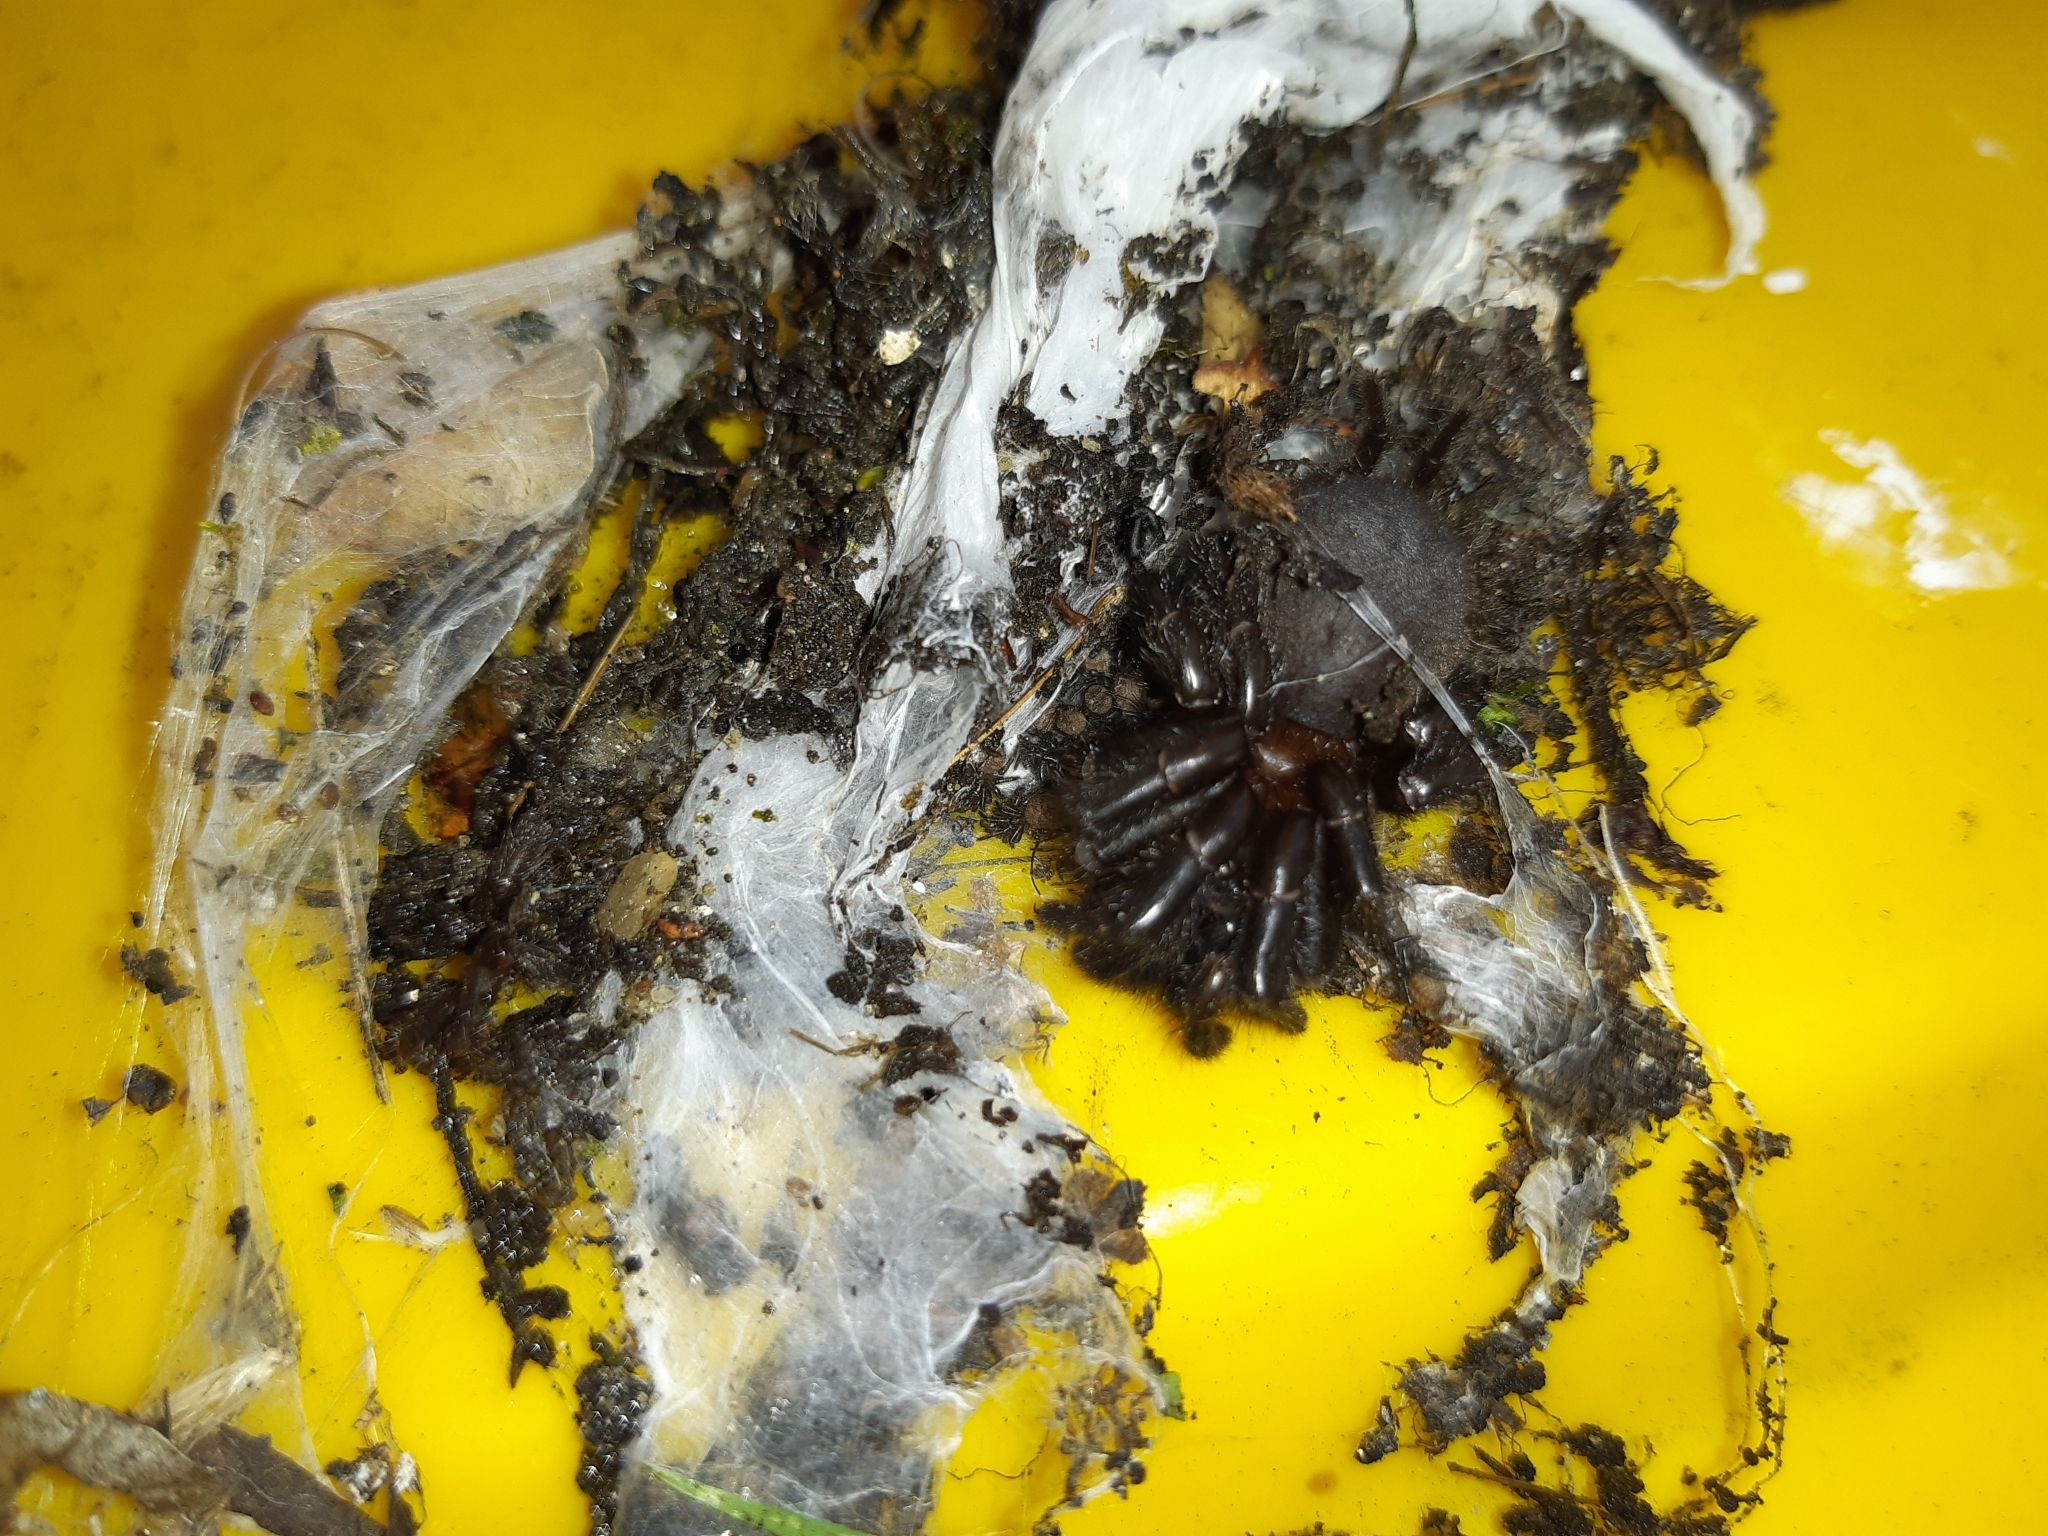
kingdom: Animalia
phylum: Arthropoda
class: Arachnida
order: Araneae
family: Porrhothelidae
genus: Porrhothele
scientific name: Porrhothele antipodiana
